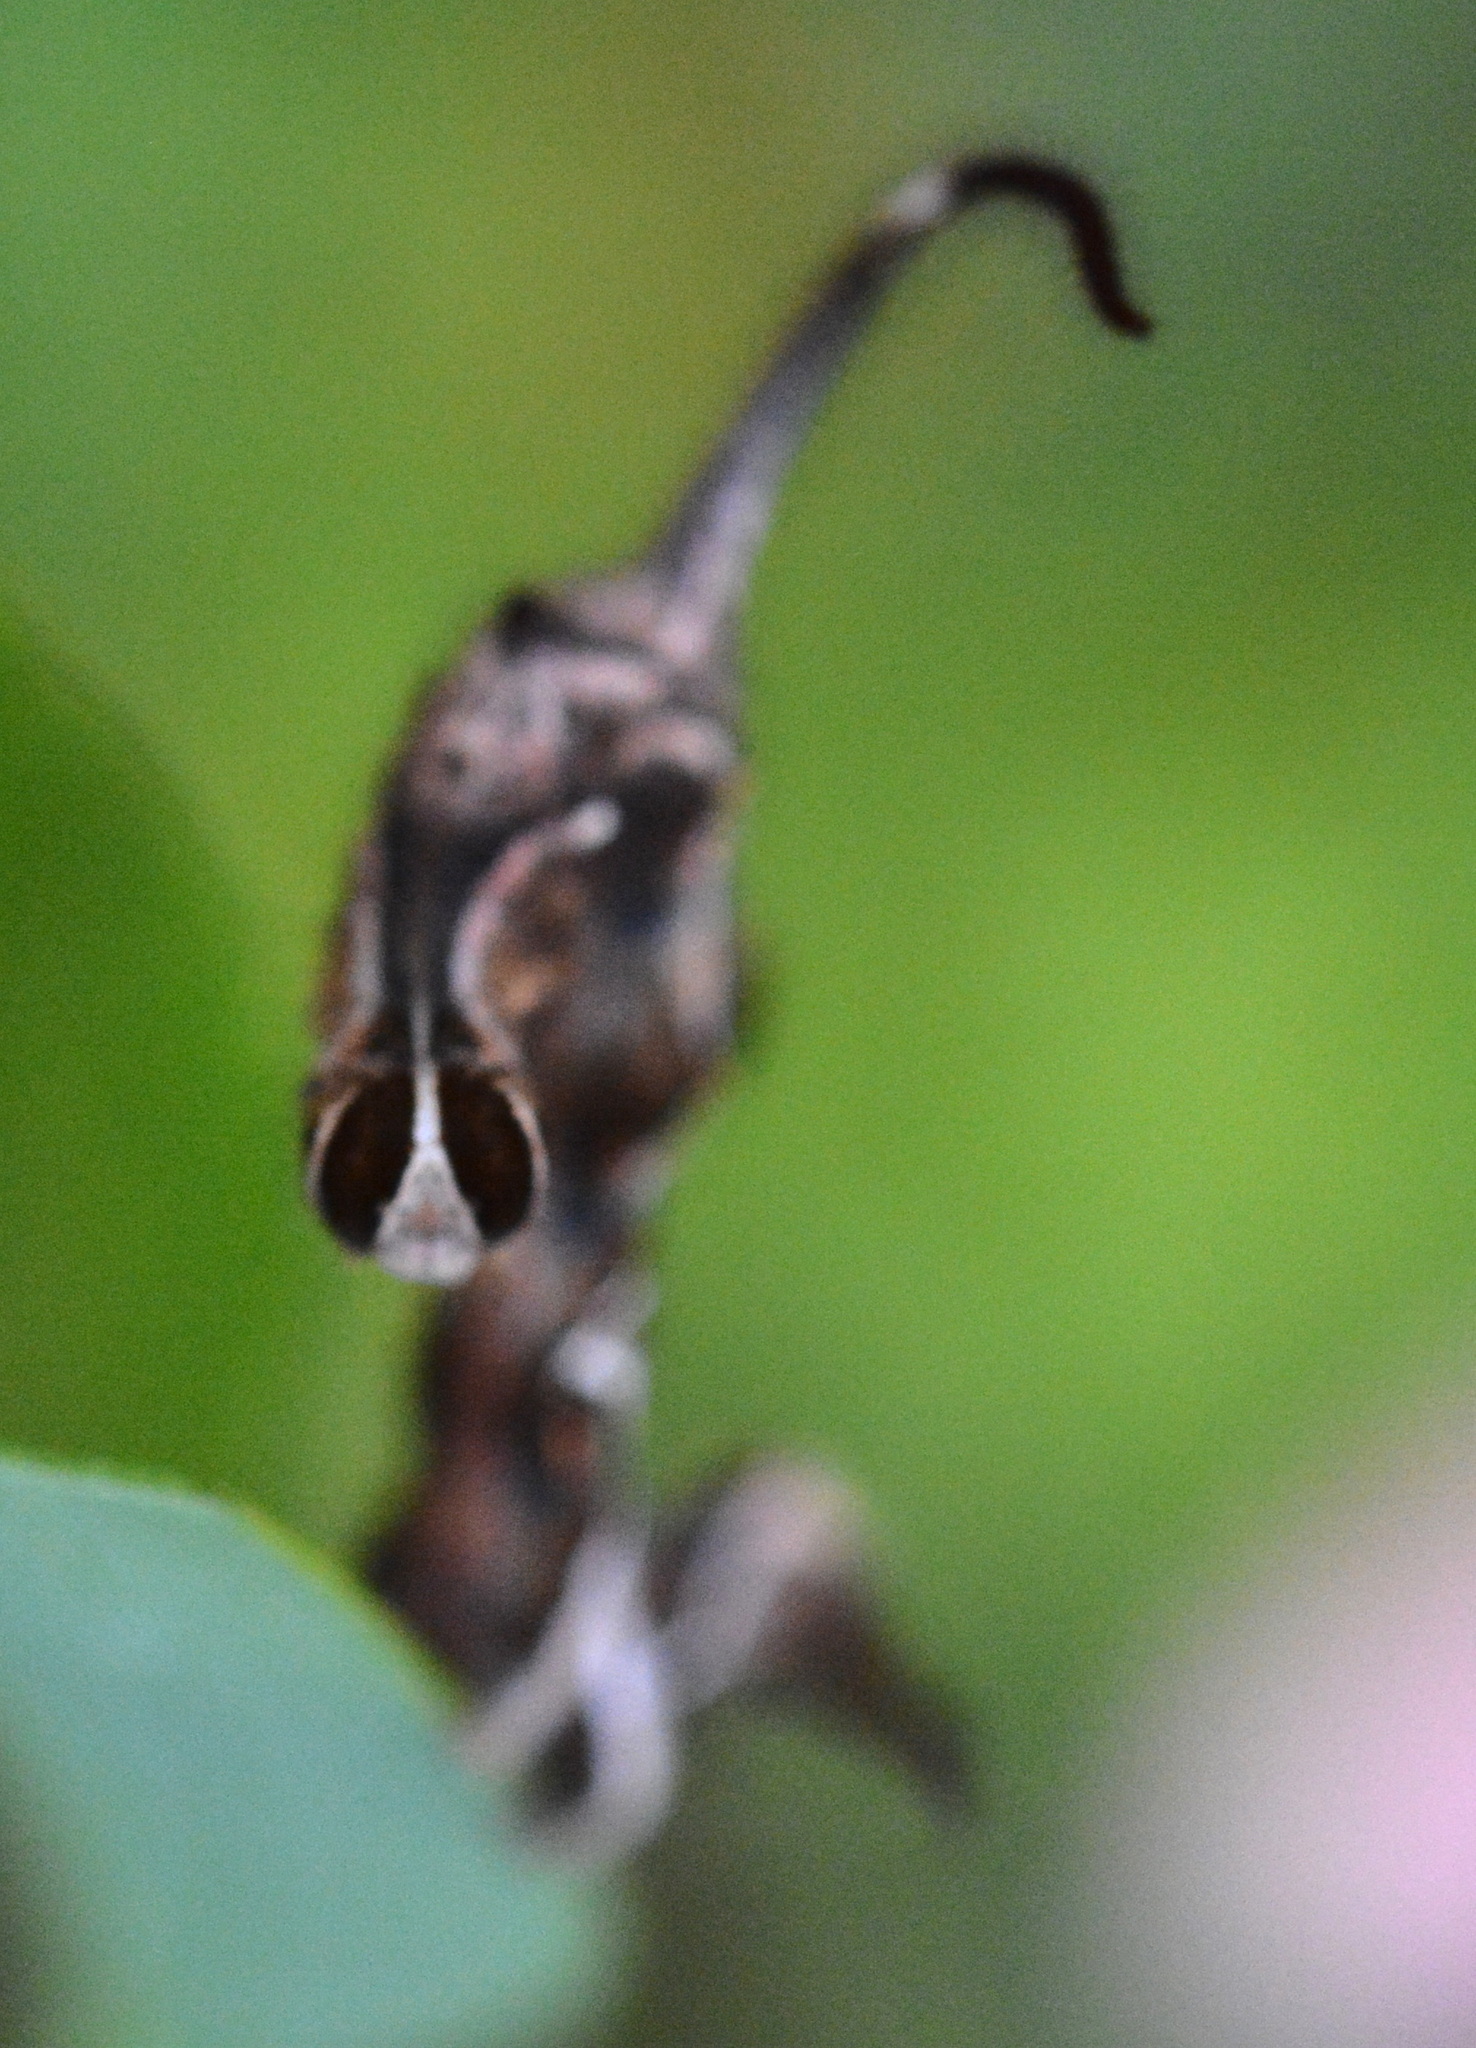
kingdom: Animalia
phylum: Arthropoda
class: Insecta
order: Lepidoptera
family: Erebidae
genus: Phyprosopus
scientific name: Phyprosopus callitrichoides
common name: Curved-lined owlet
